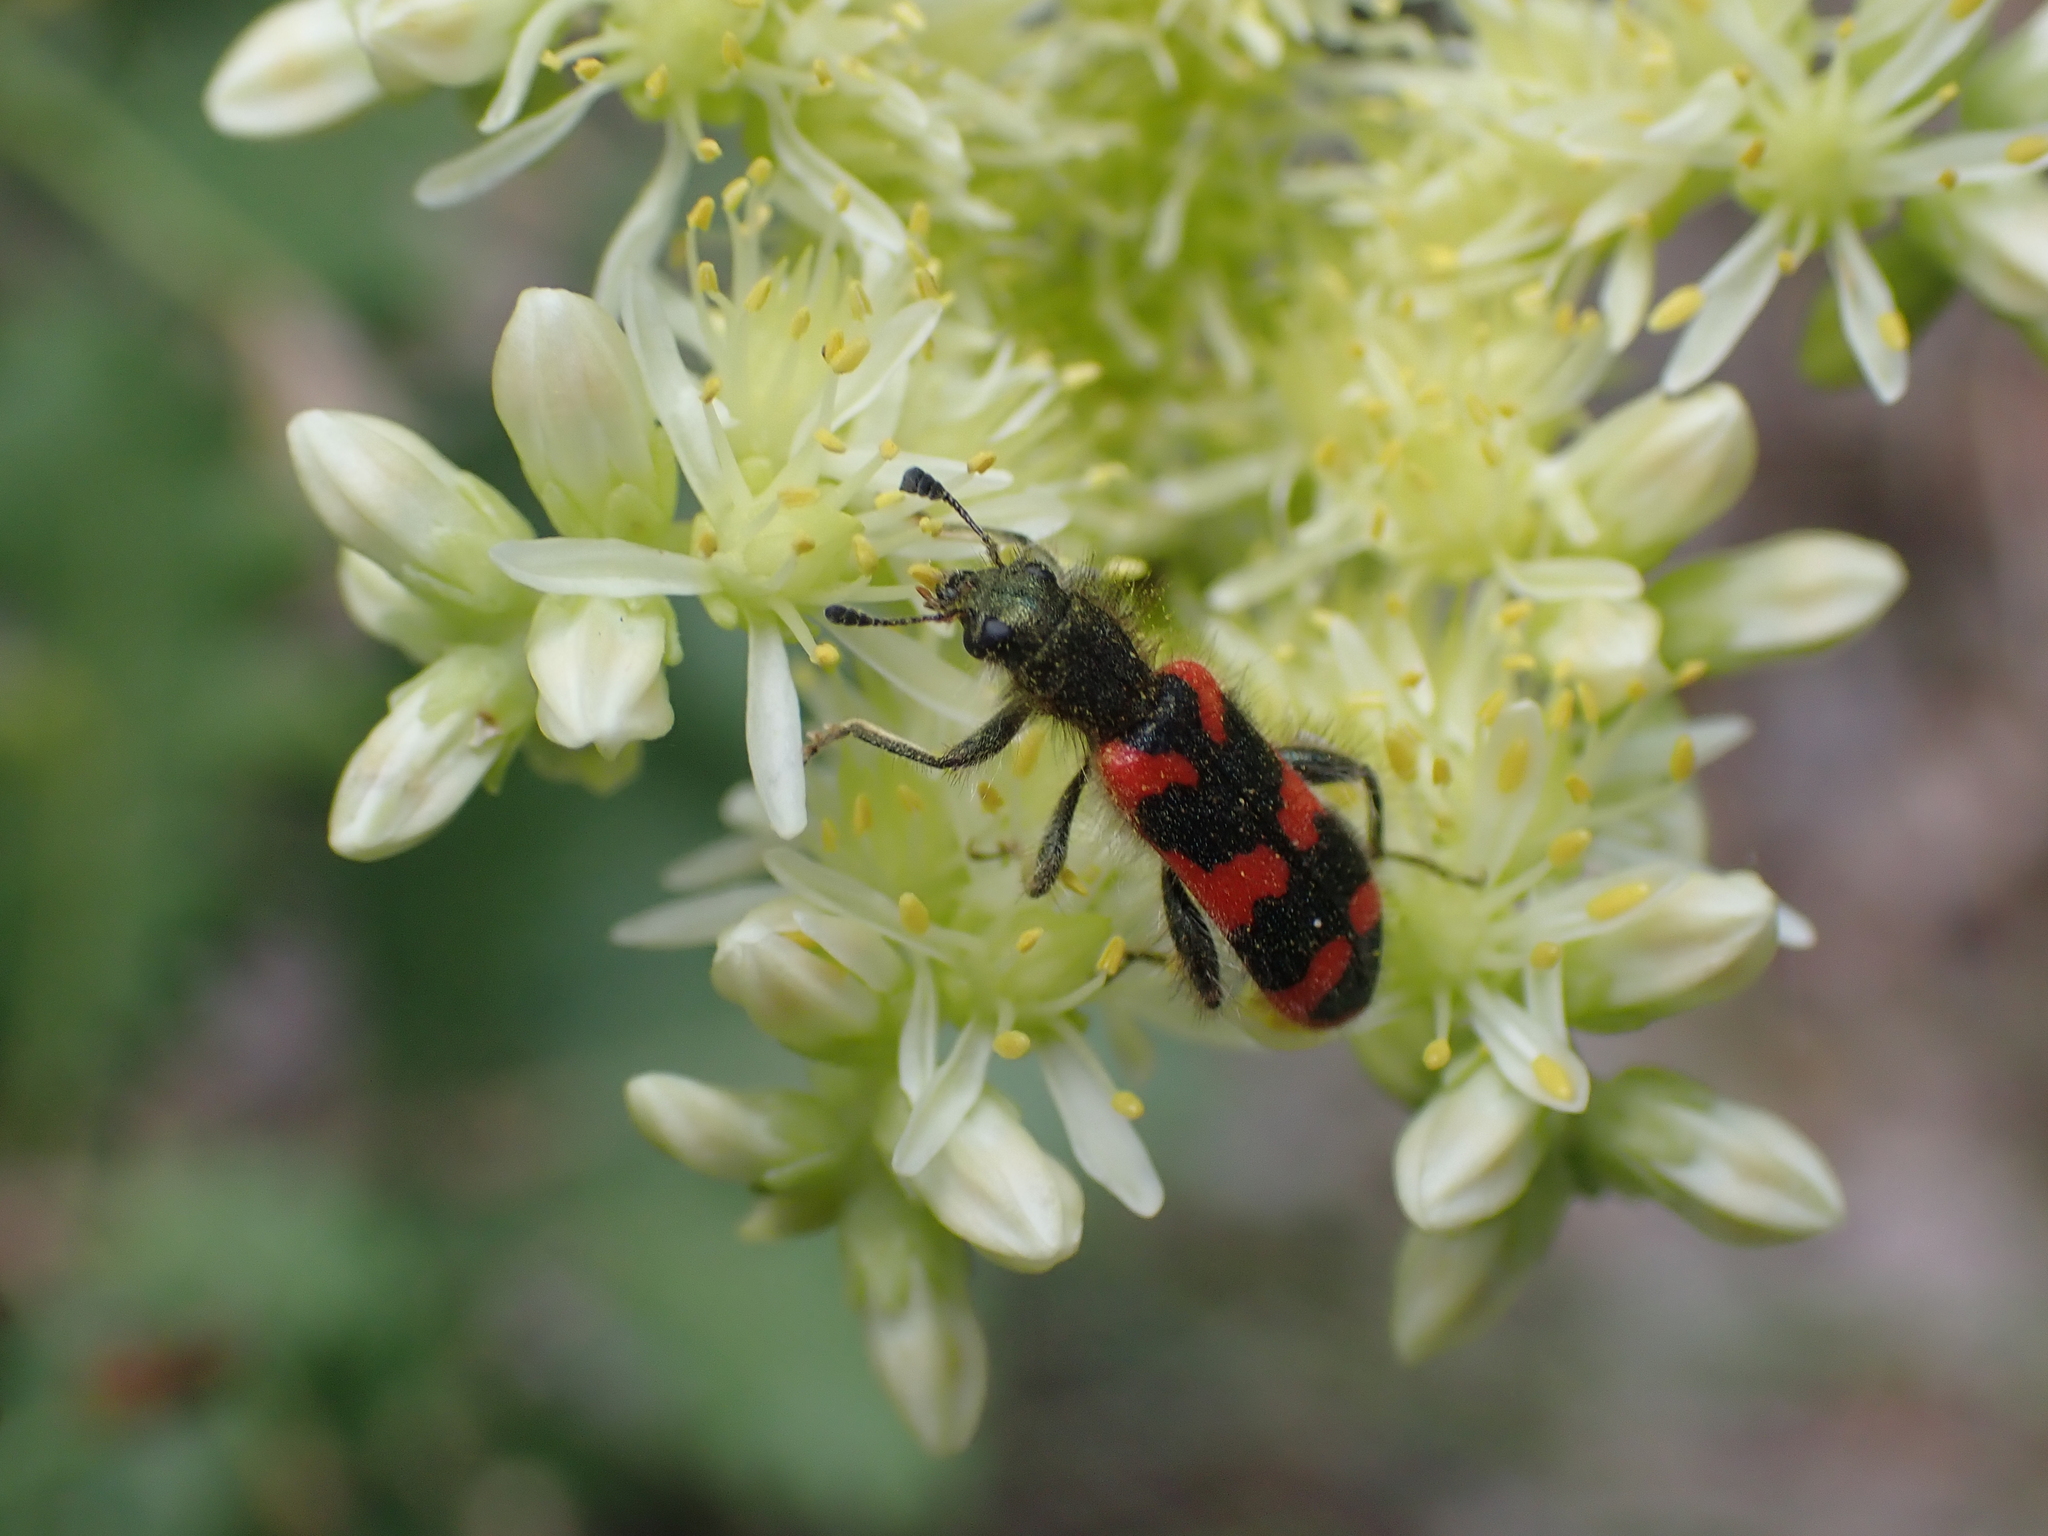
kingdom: Animalia
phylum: Arthropoda
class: Insecta
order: Coleoptera
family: Cleridae
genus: Trichodes
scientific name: Trichodes alvearius
